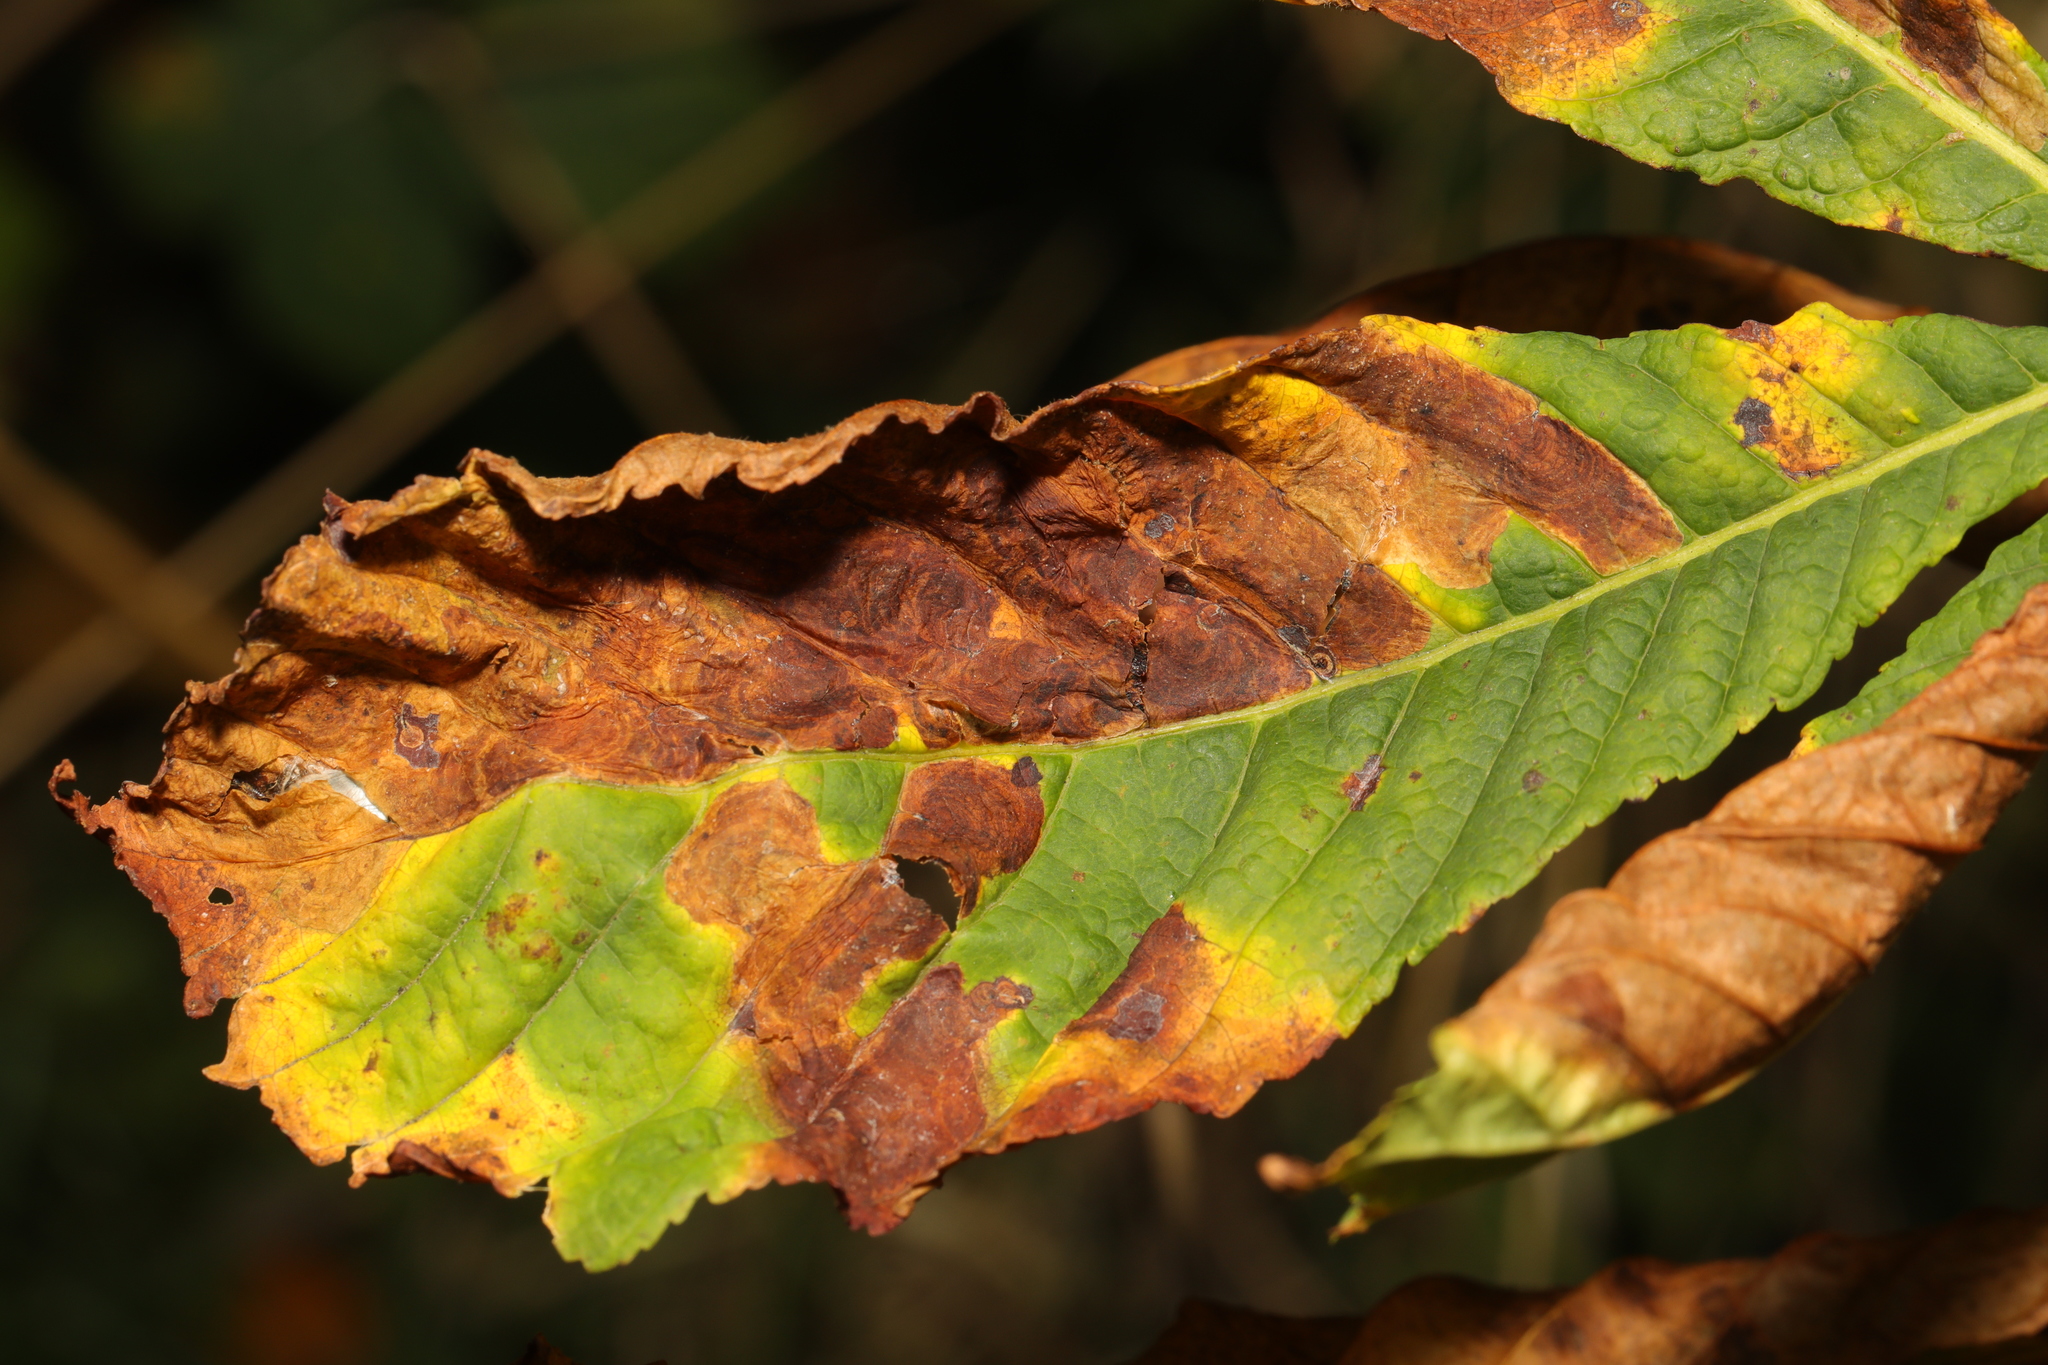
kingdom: Plantae
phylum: Tracheophyta
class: Magnoliopsida
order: Sapindales
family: Sapindaceae
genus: Aesculus
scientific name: Aesculus hippocastanum
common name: Horse-chestnut
